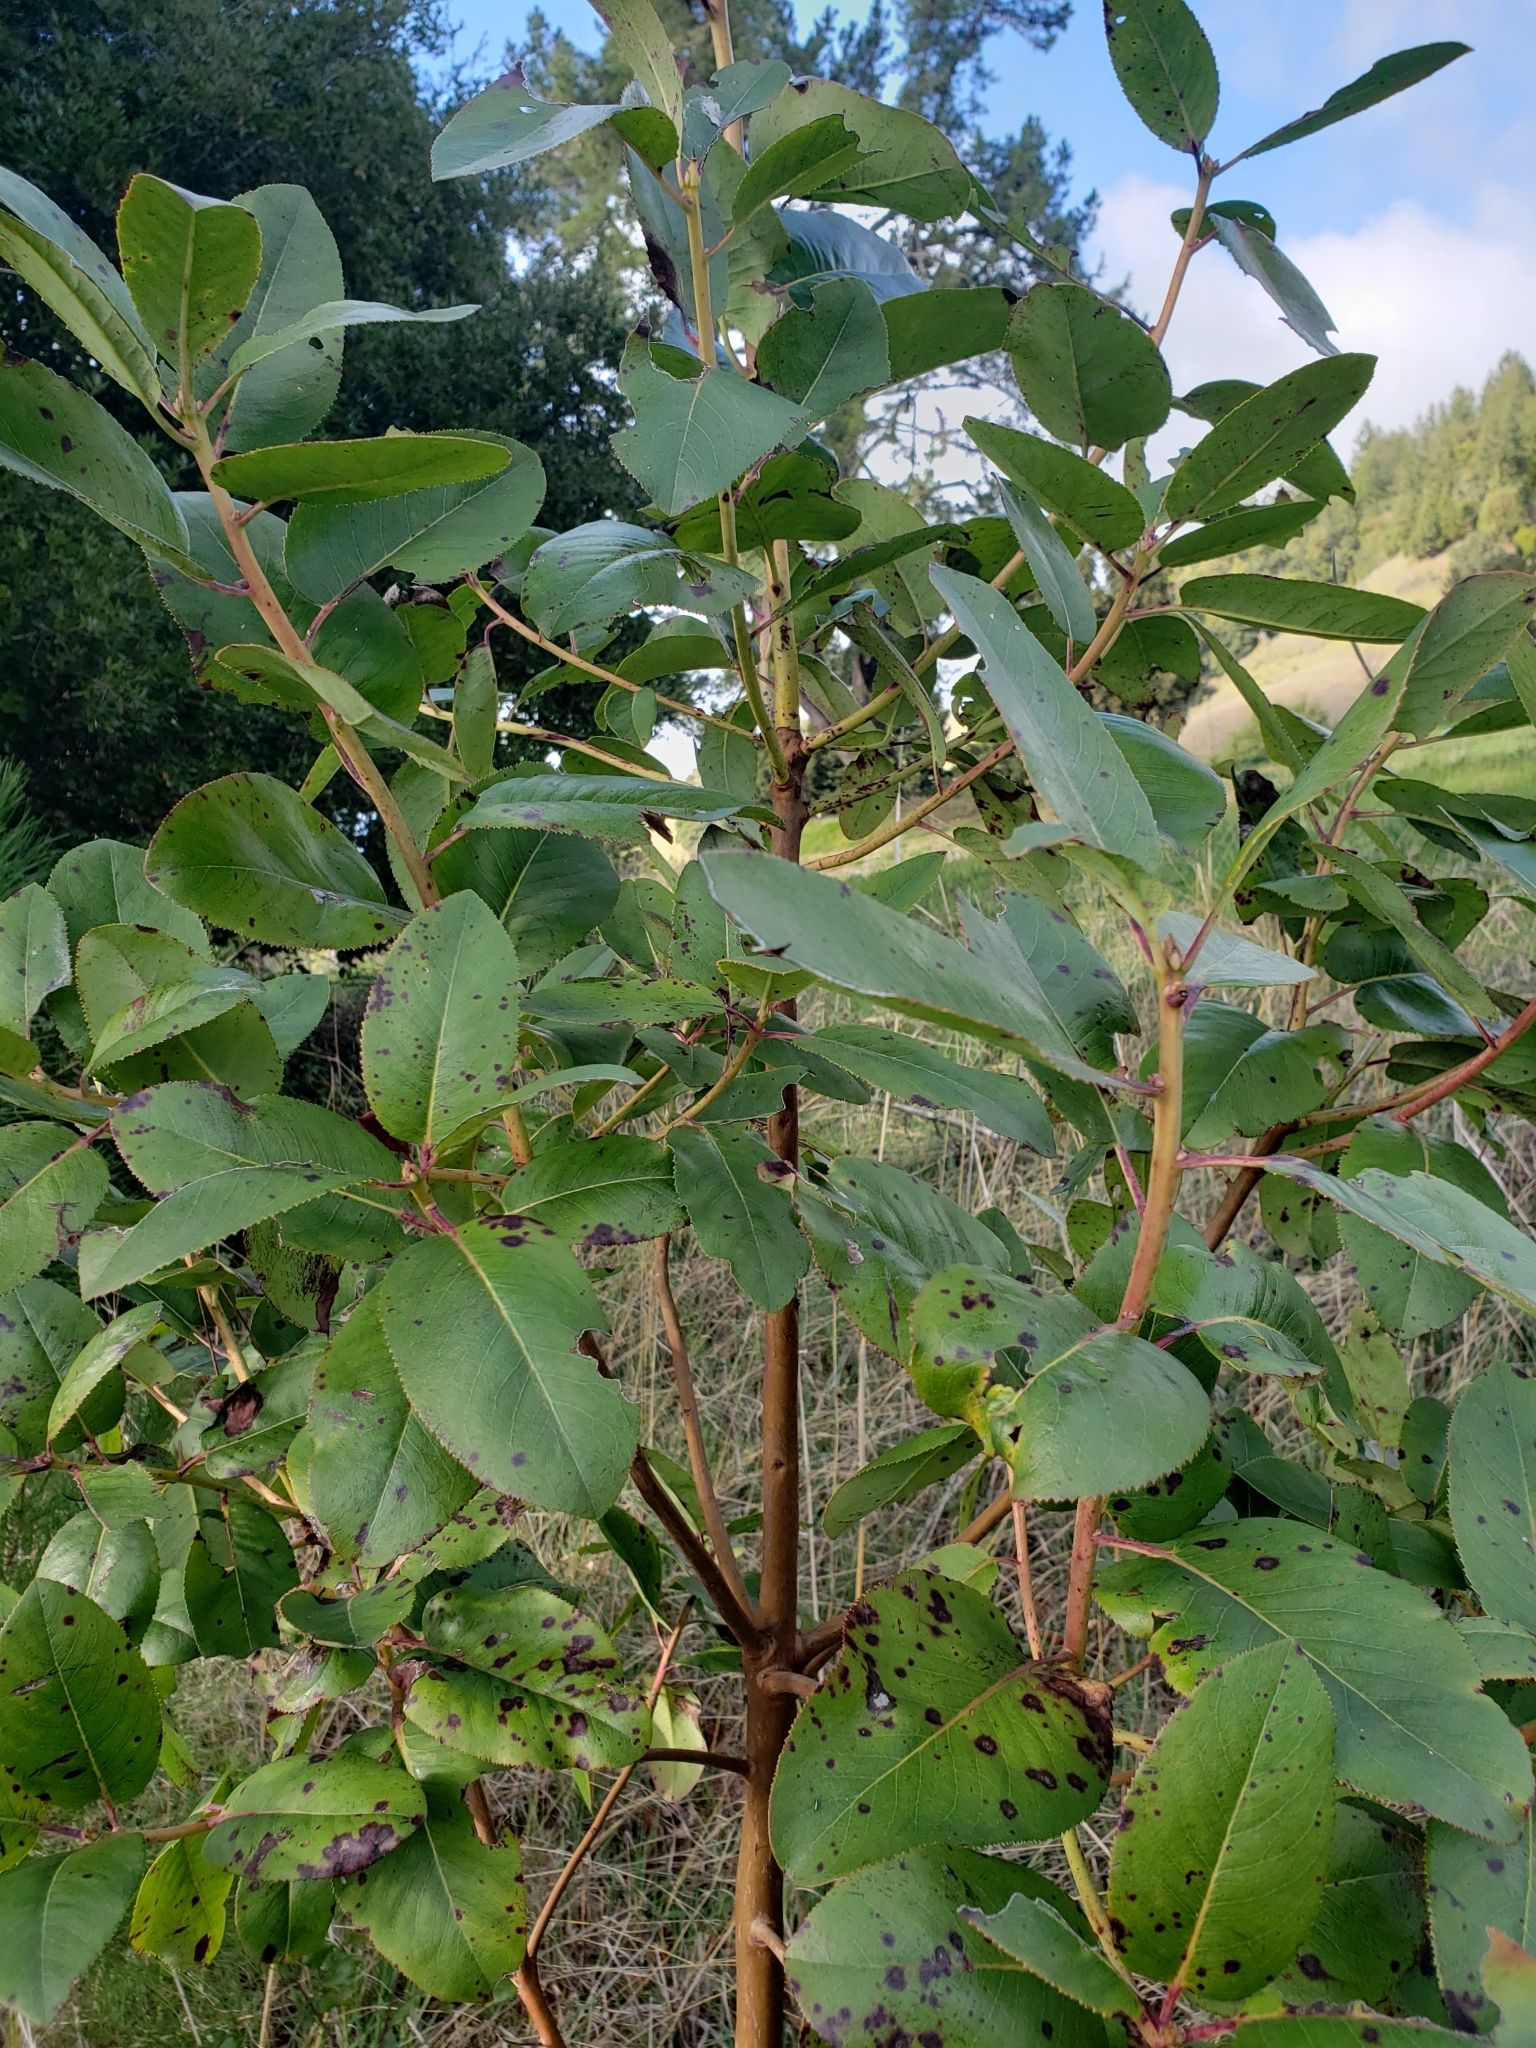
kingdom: Plantae
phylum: Tracheophyta
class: Magnoliopsida
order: Ericales
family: Ericaceae
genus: Arbutus
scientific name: Arbutus menziesii
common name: Pacific madrone
